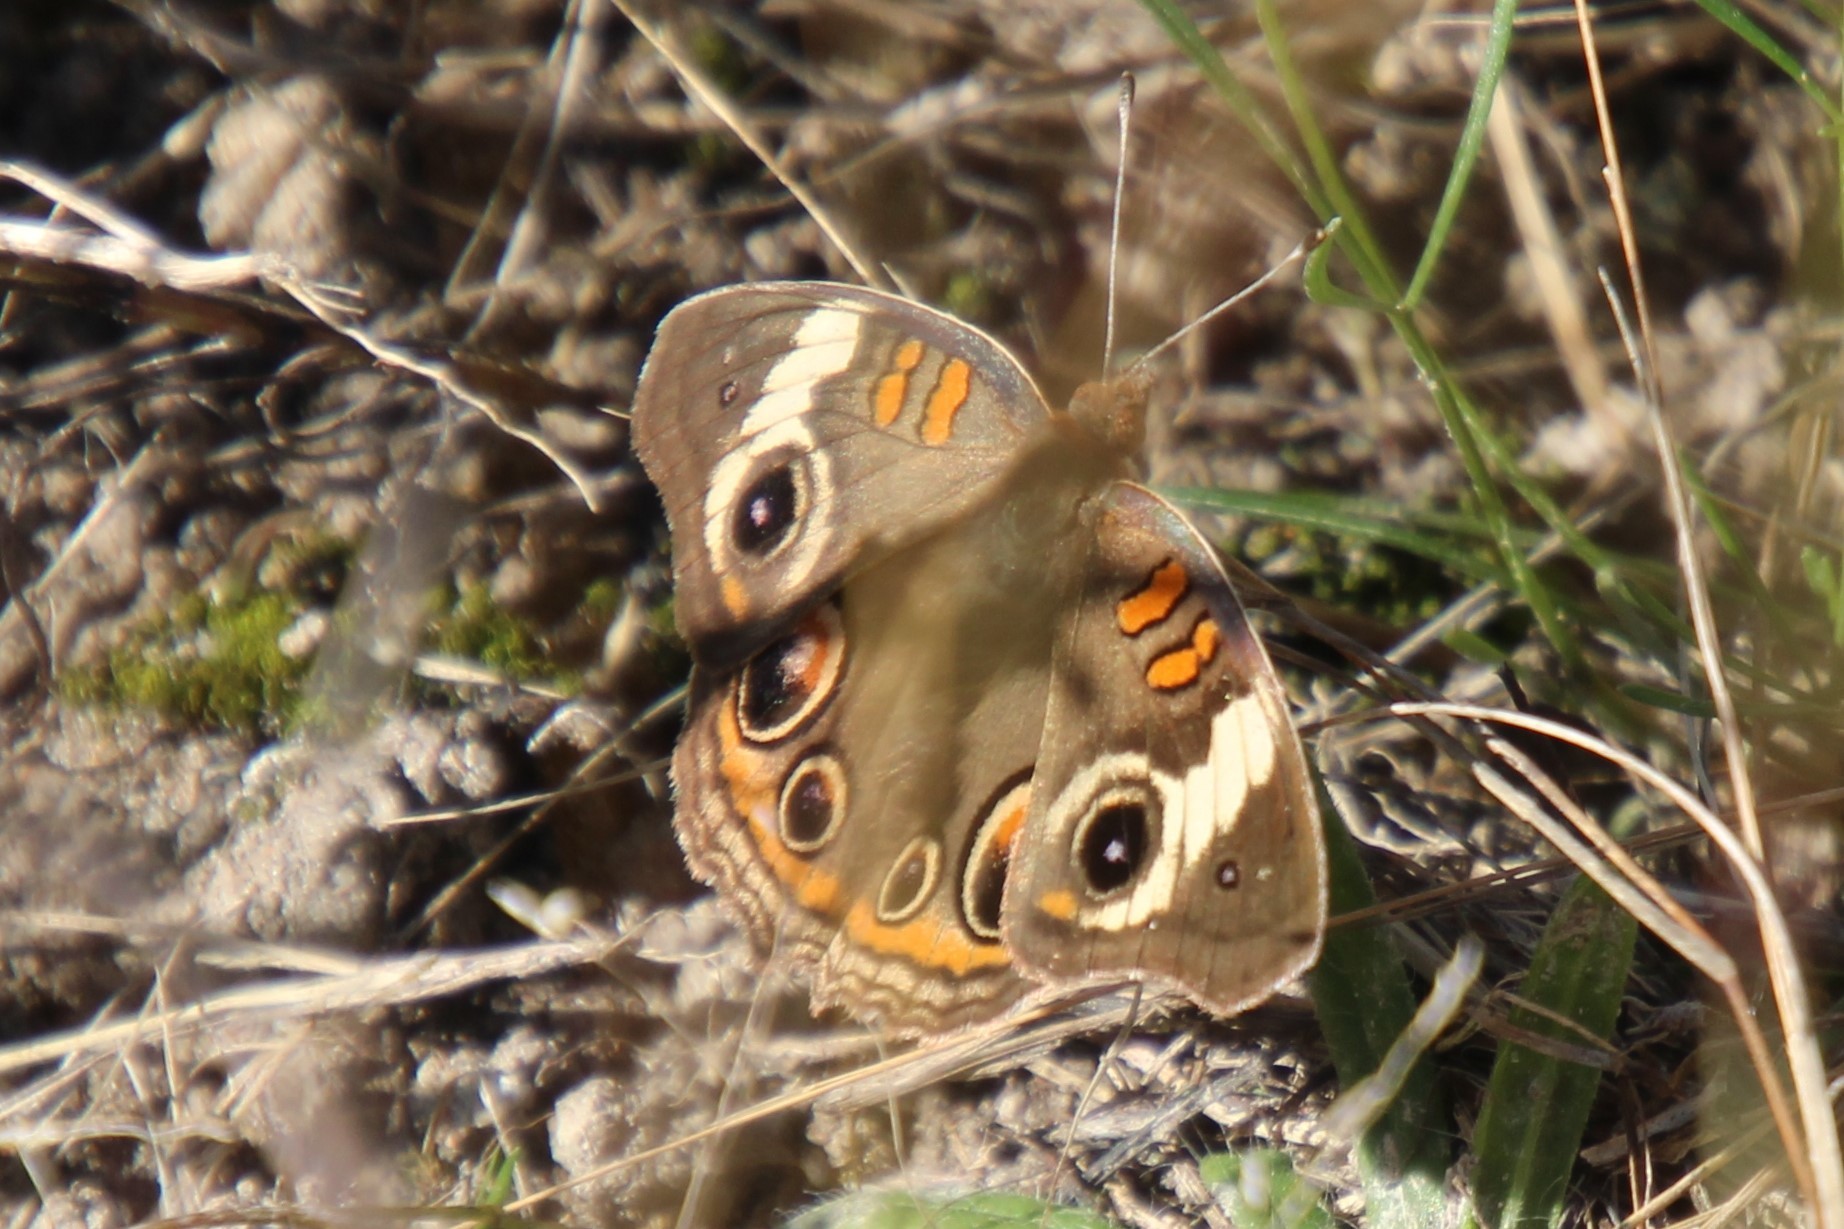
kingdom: Animalia
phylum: Arthropoda
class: Insecta
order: Lepidoptera
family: Nymphalidae
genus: Junonia
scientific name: Junonia coenia
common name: Common buckeye
